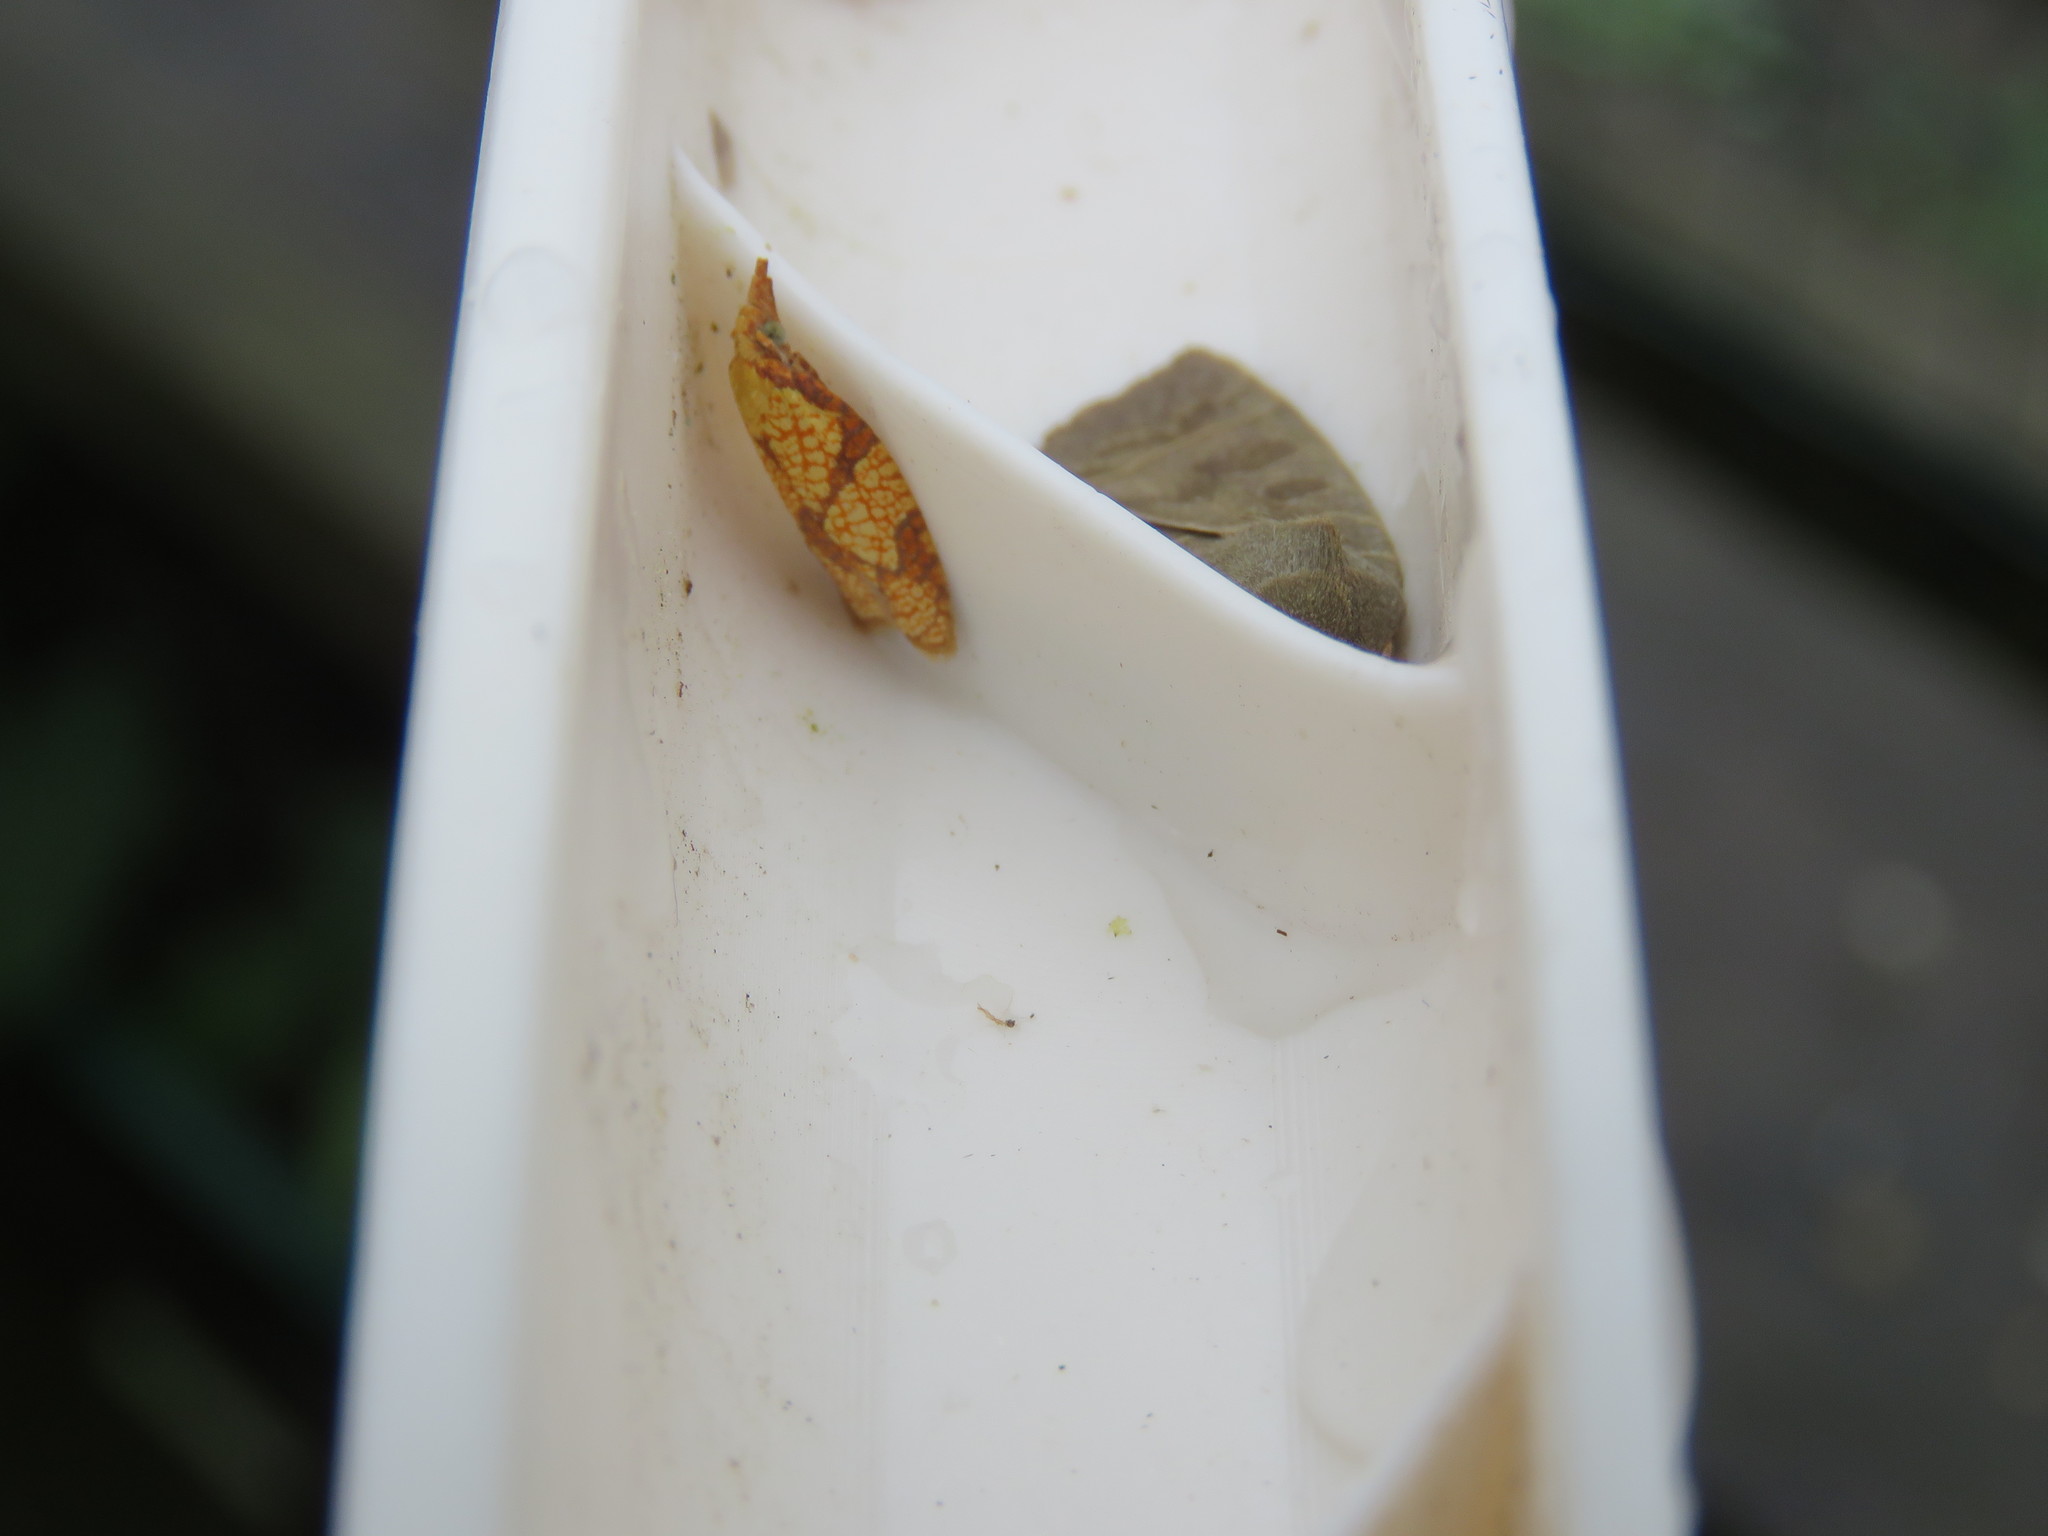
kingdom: Animalia
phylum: Arthropoda
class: Insecta
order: Lepidoptera
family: Tortricidae
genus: Cenopis
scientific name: Cenopis reticulatana
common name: Reticulated fruitworm moth
